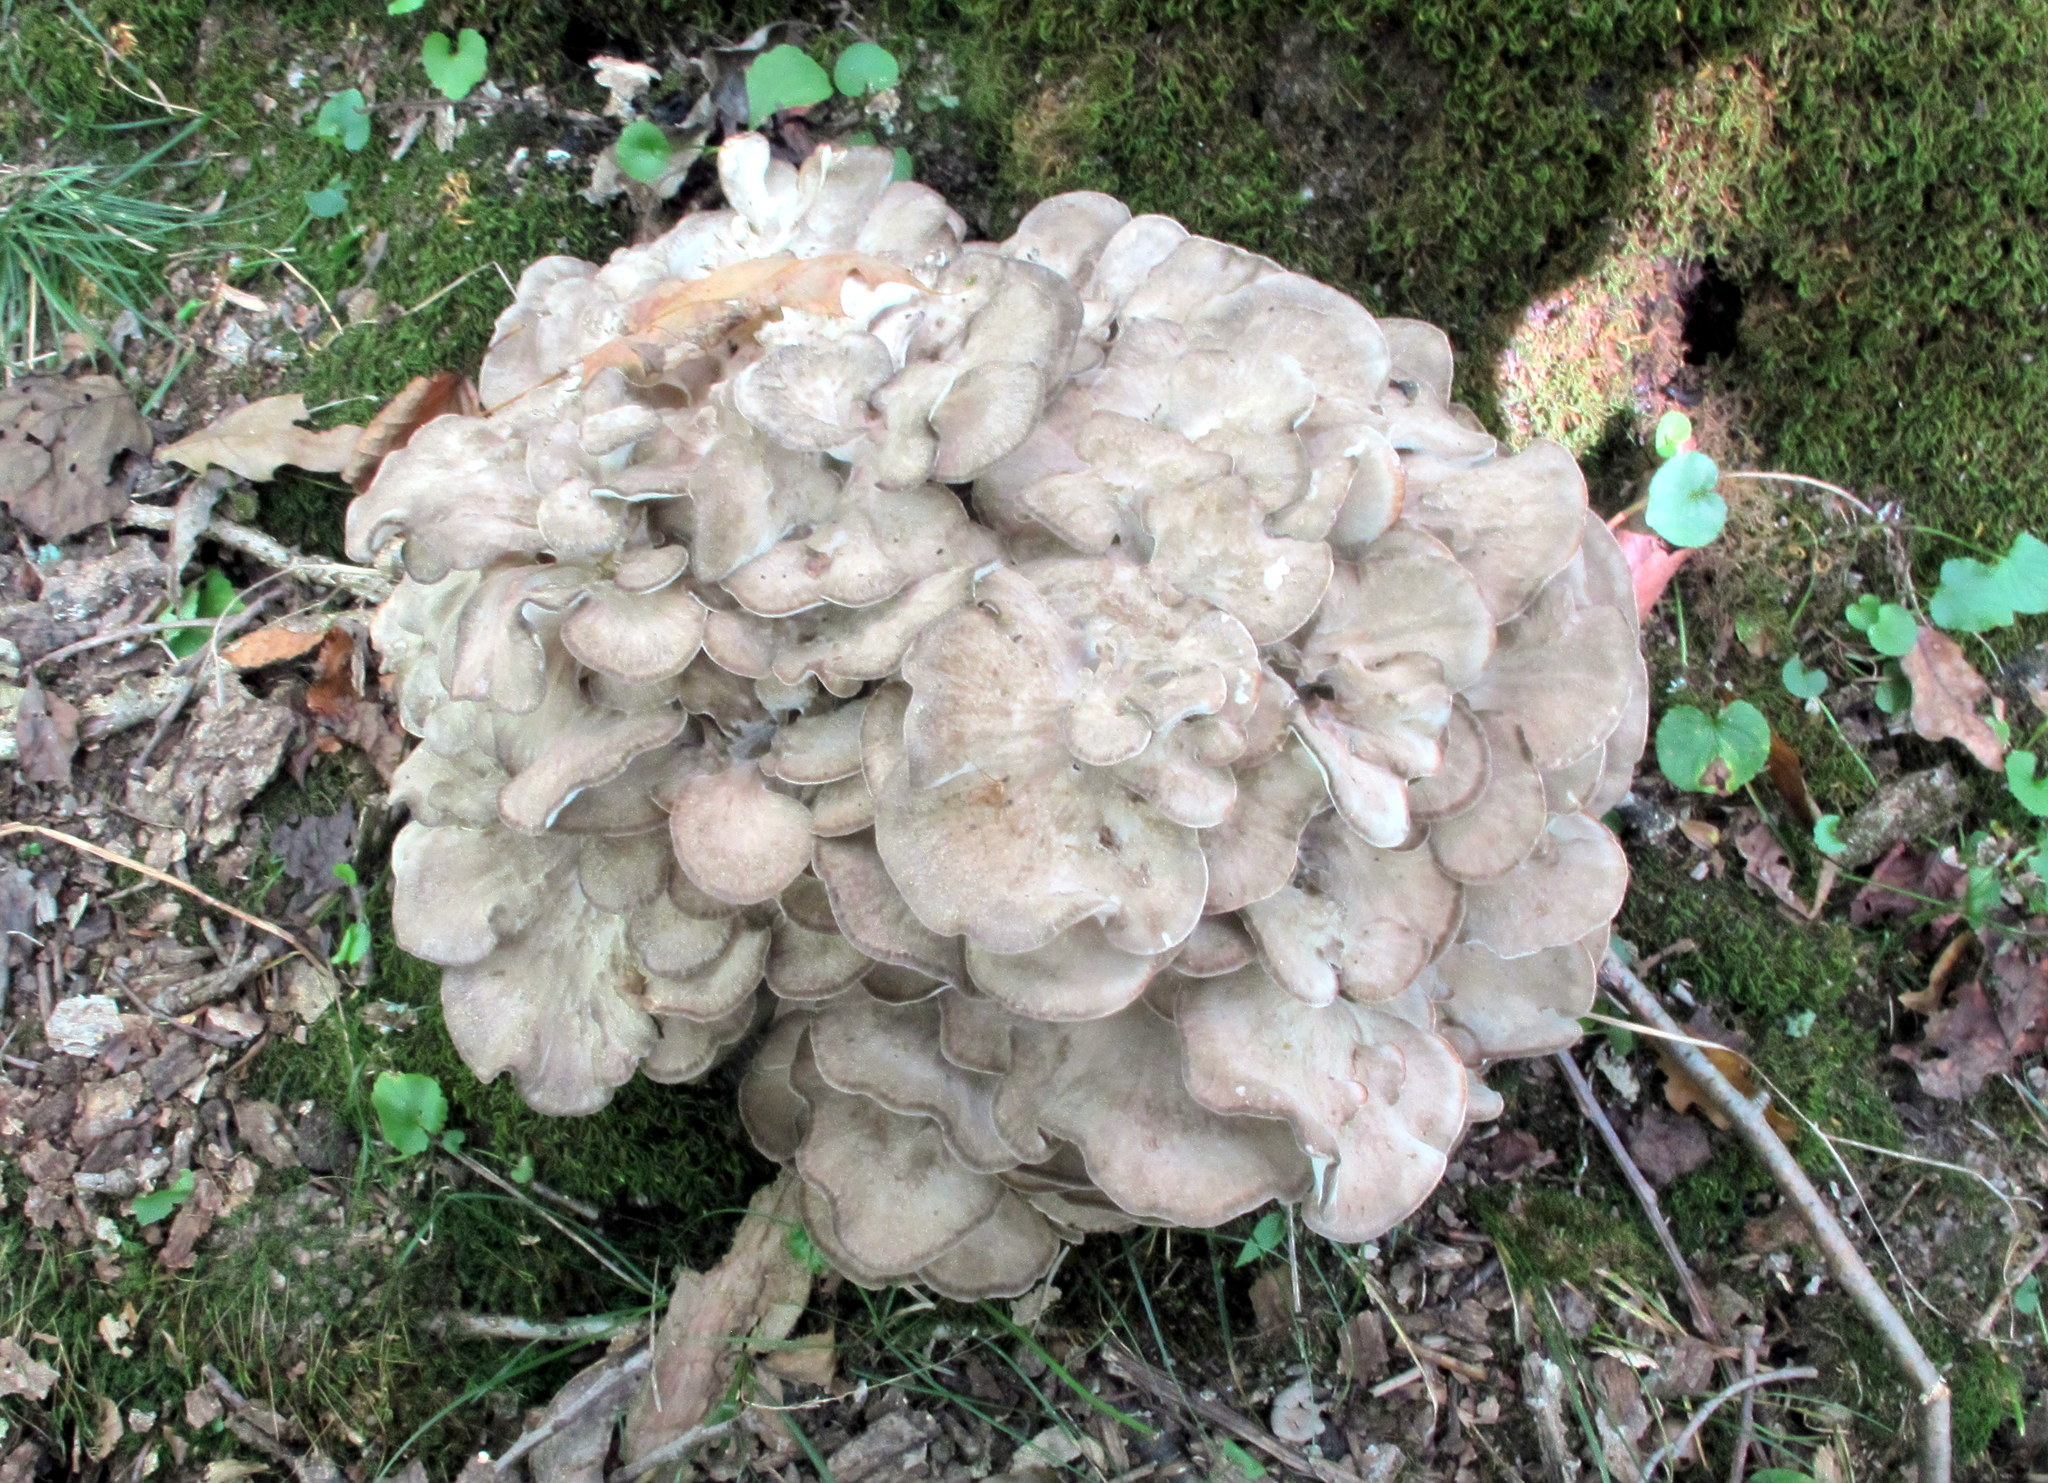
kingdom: Fungi
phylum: Basidiomycota
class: Agaricomycetes
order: Polyporales
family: Grifolaceae
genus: Grifola
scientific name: Grifola frondosa
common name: Hen of the woods
